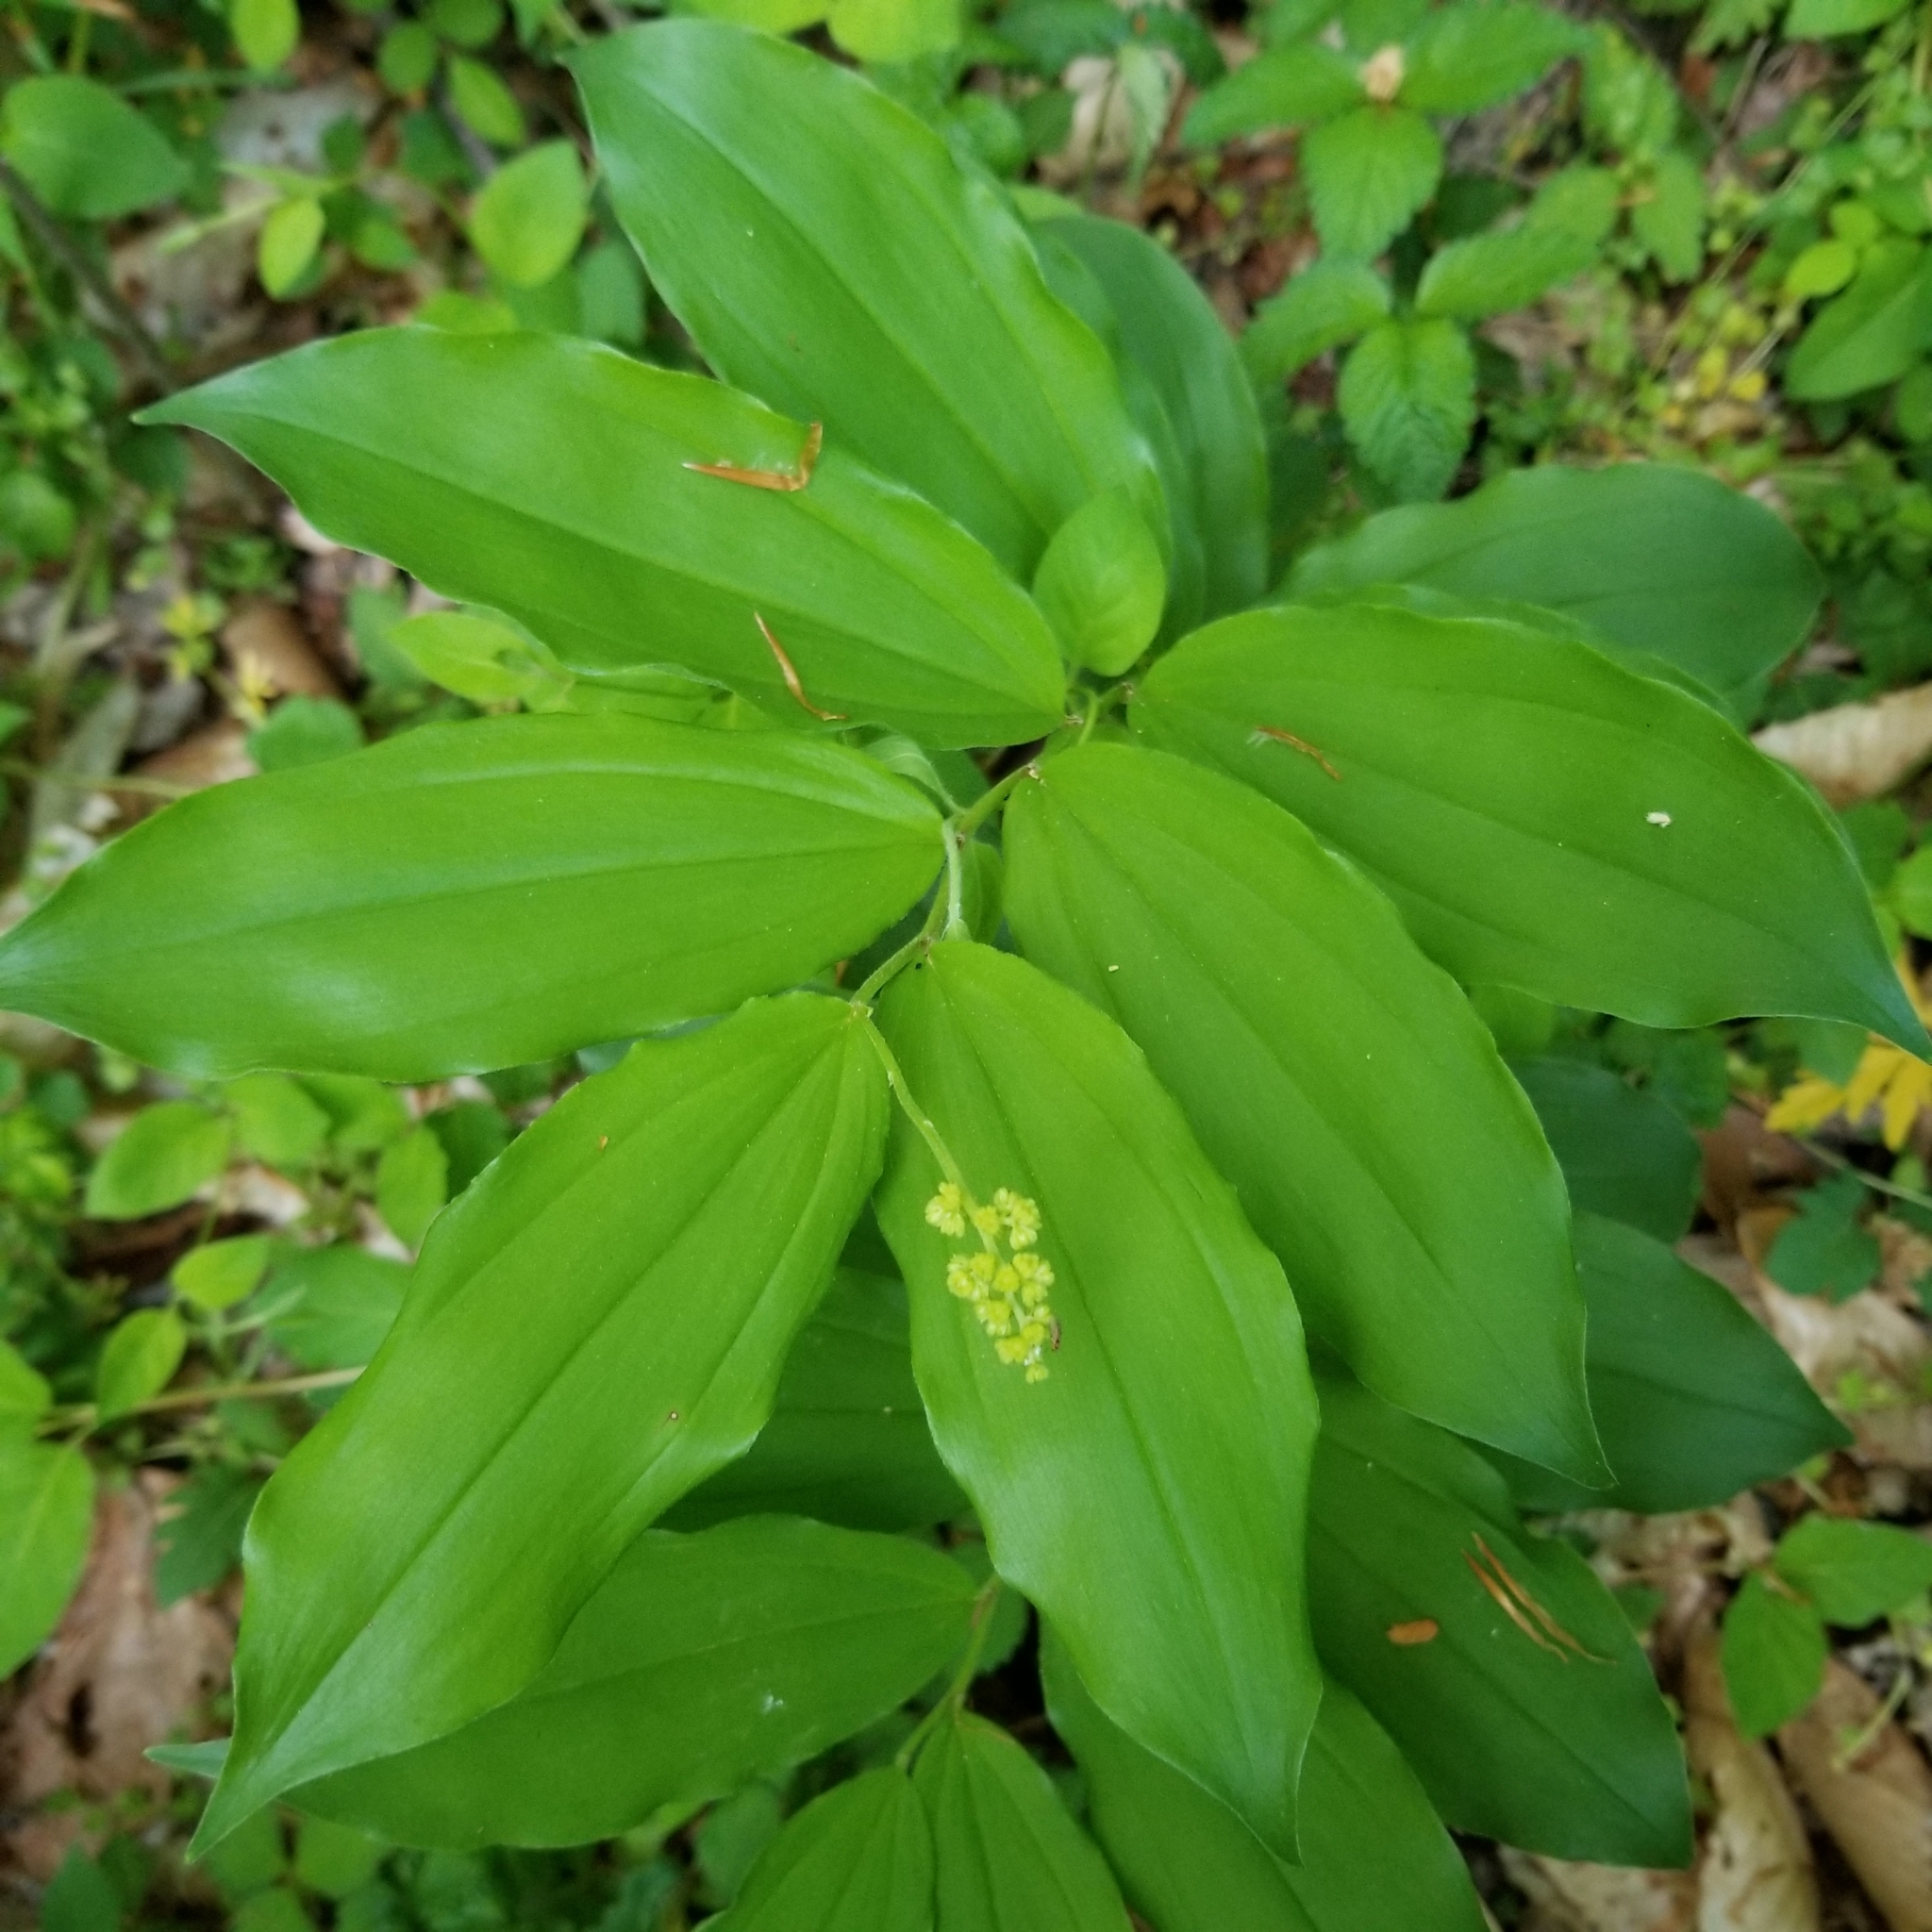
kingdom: Plantae
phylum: Tracheophyta
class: Liliopsida
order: Asparagales
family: Asparagaceae
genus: Maianthemum
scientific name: Maianthemum racemosum
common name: False spikenard
